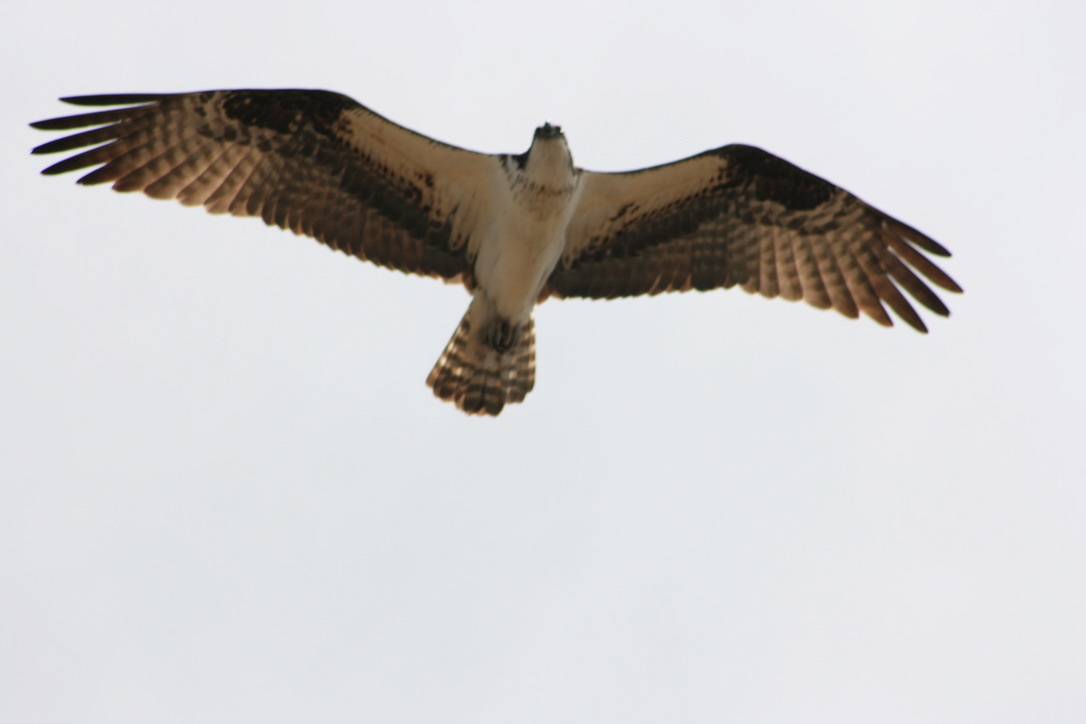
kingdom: Animalia
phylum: Chordata
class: Aves
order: Accipitriformes
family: Pandionidae
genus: Pandion
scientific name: Pandion haliaetus
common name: Osprey
